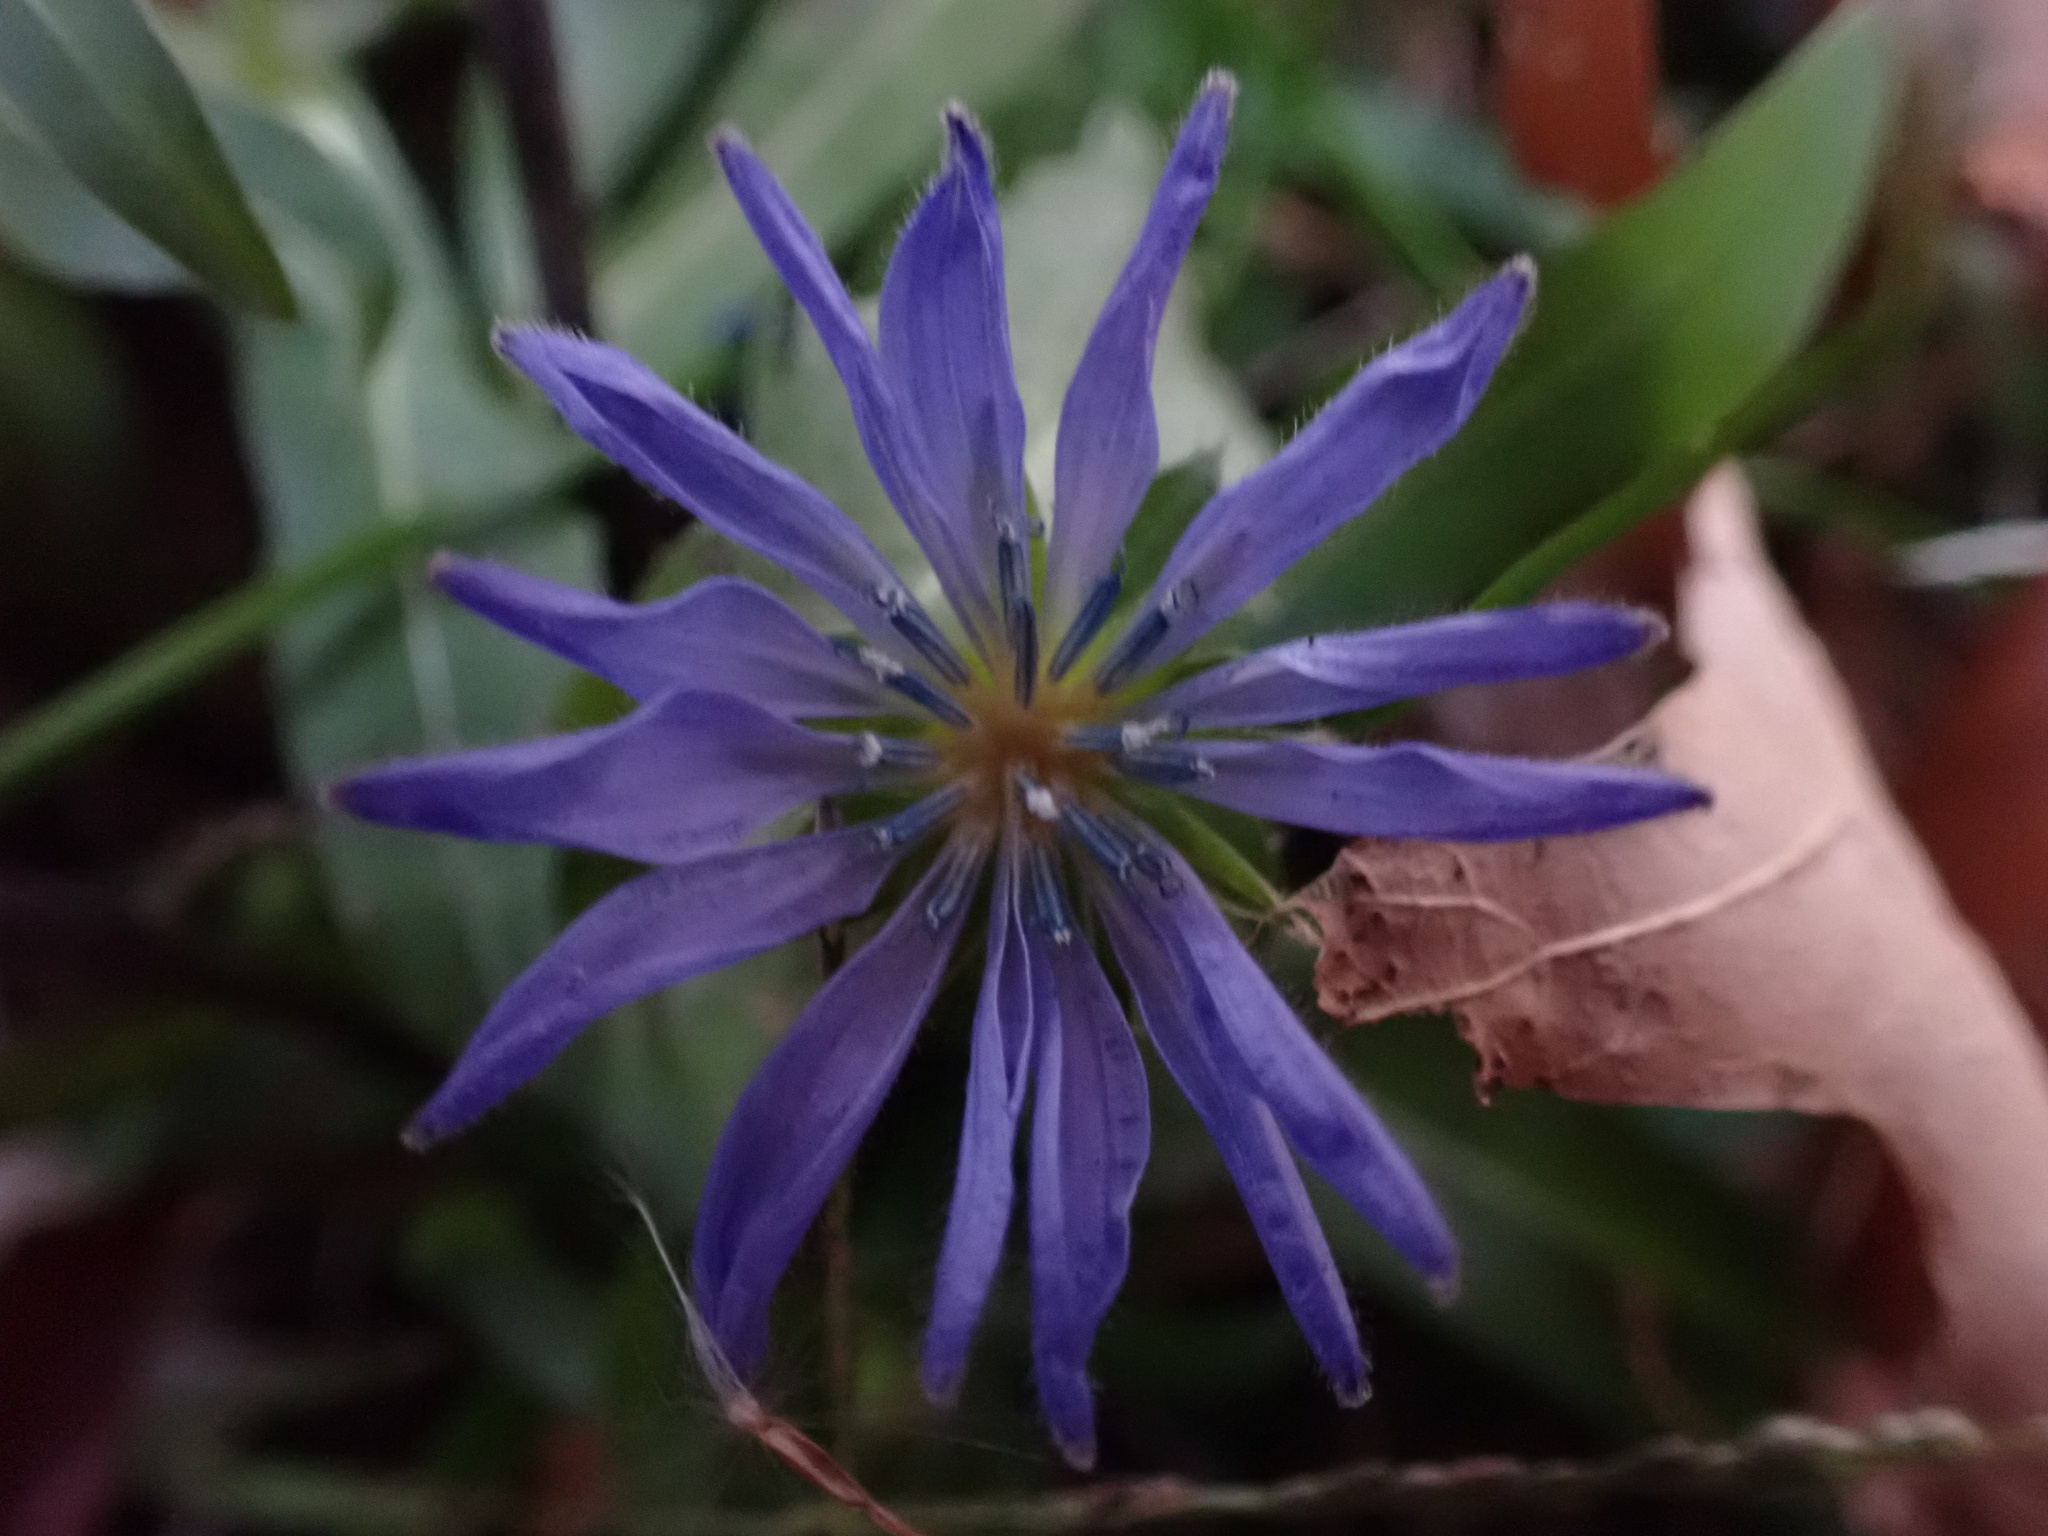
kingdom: Plantae
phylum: Tracheophyta
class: Magnoliopsida
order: Asterales
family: Asteraceae
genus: Cichorium
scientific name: Cichorium intybus
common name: Chicory
